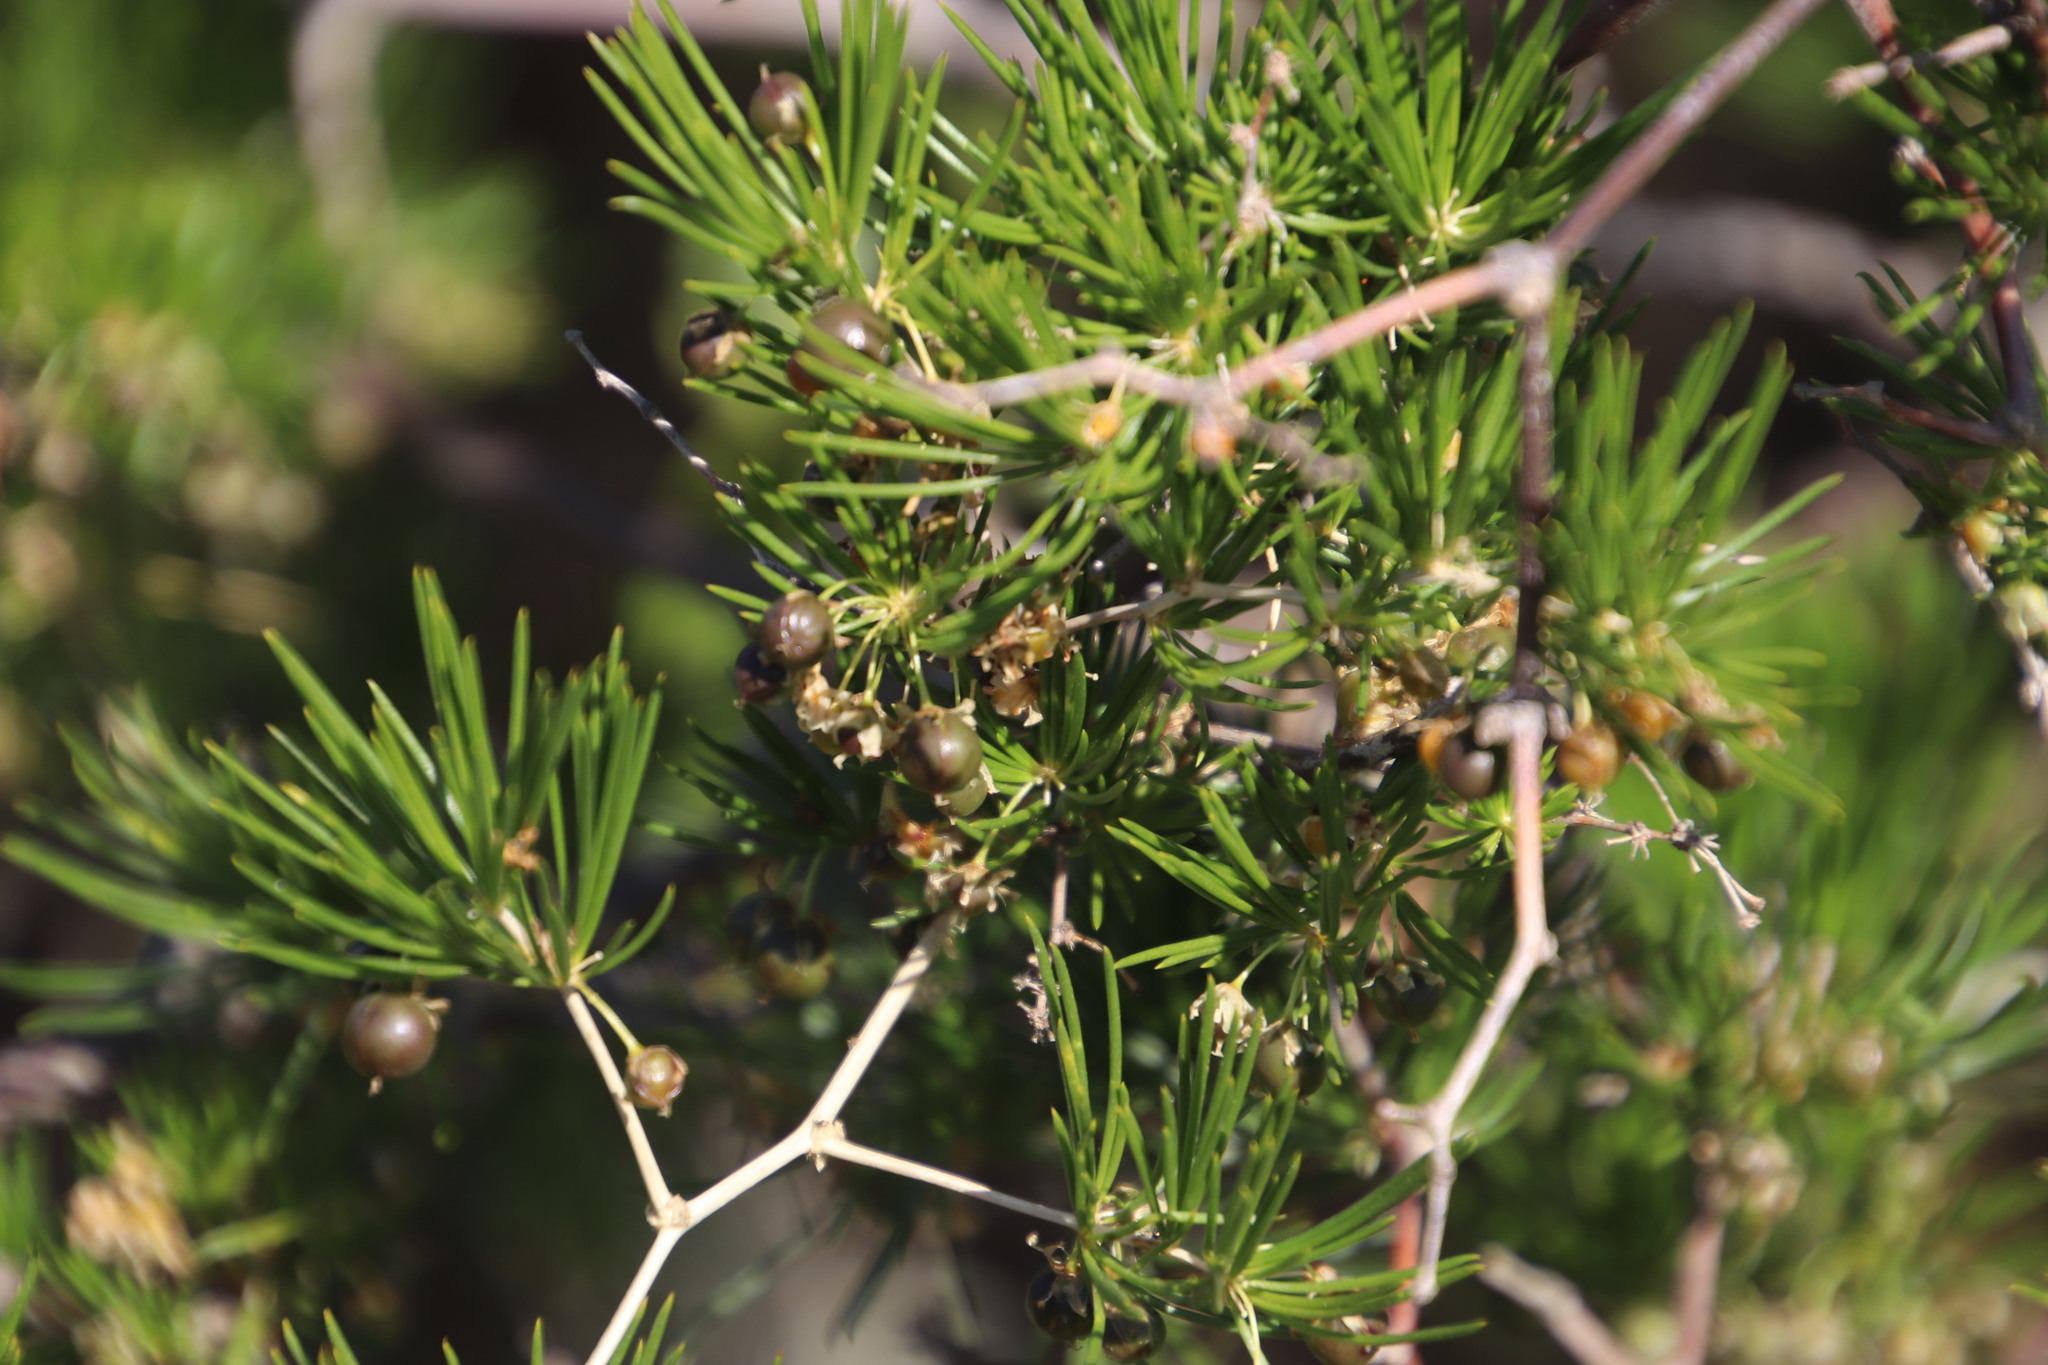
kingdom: Plantae
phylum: Tracheophyta
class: Liliopsida
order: Asparagales
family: Asparagaceae
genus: Asparagus
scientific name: Asparagus retrofractus
